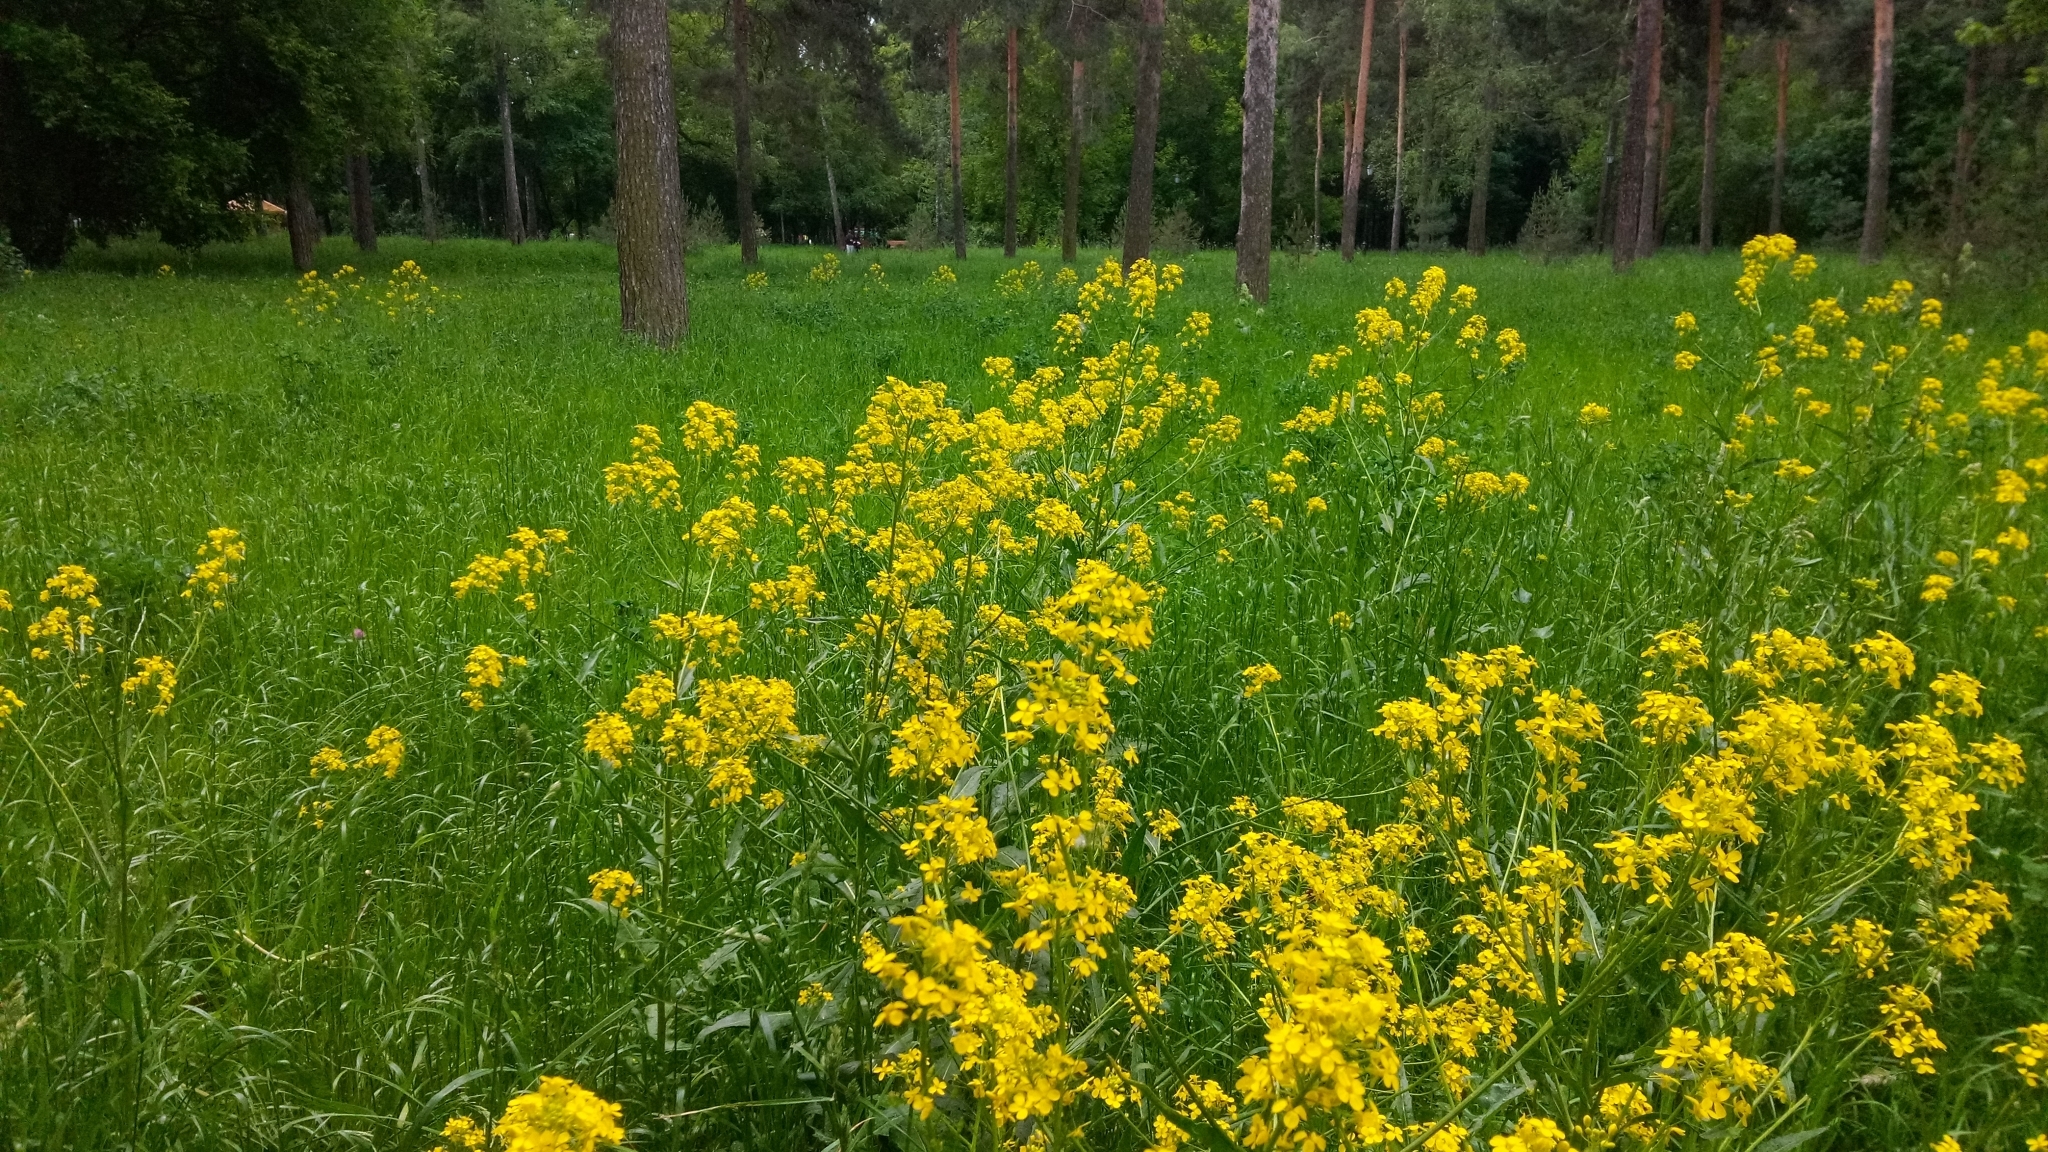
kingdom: Plantae
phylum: Tracheophyta
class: Magnoliopsida
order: Brassicales
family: Brassicaceae
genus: Bunias
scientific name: Bunias orientalis
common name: Warty-cabbage
